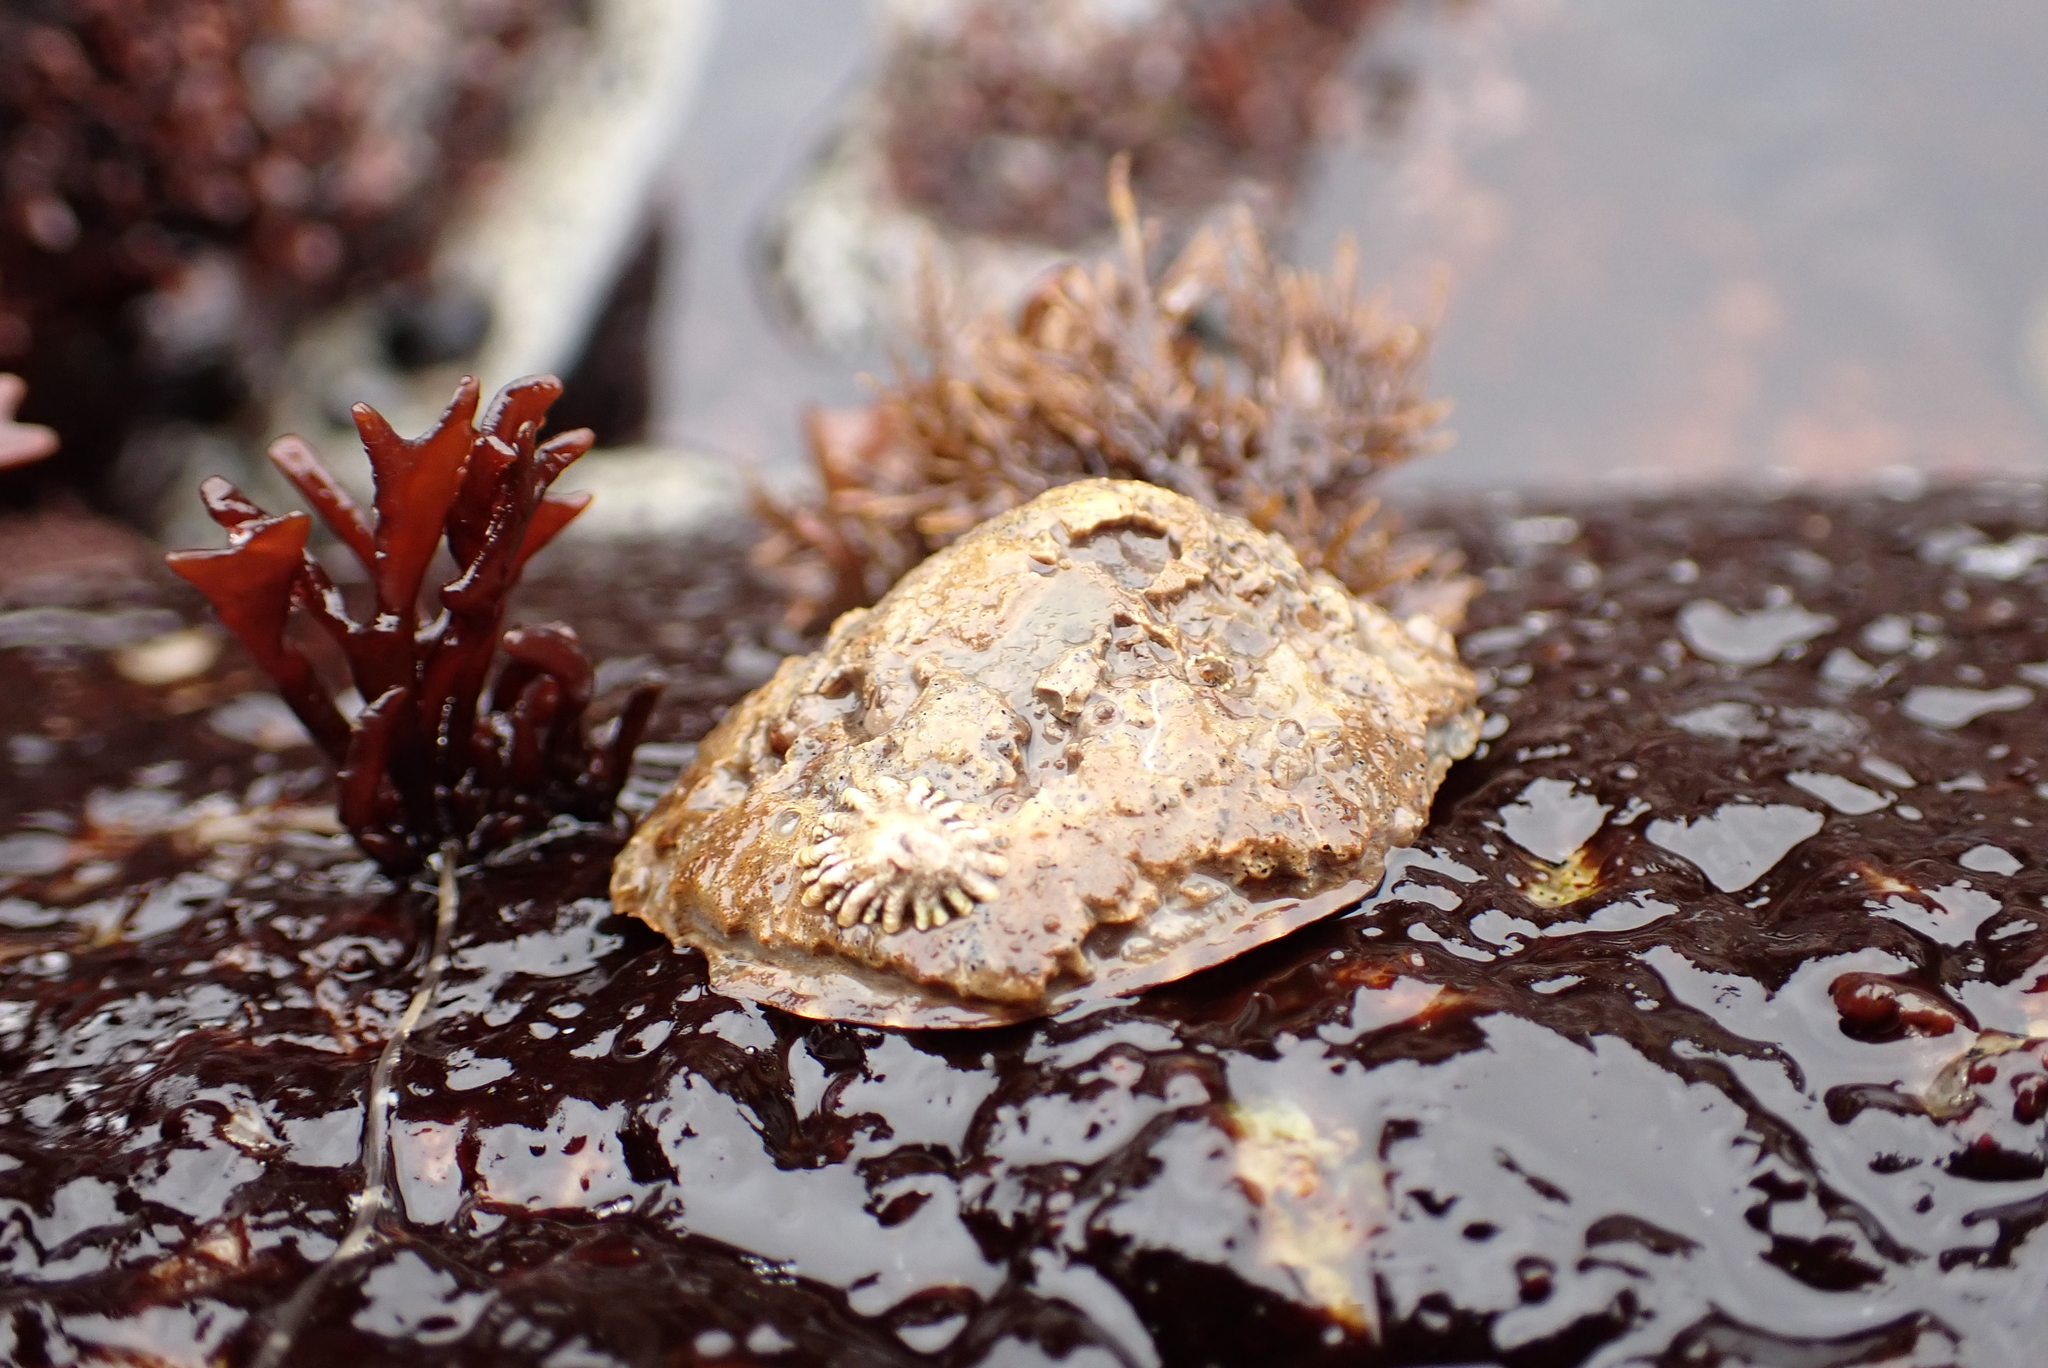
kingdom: Animalia
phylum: Mollusca
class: Gastropoda
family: Lottiidae
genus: Lottia
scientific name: Lottia gigantea
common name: Owl limpet
